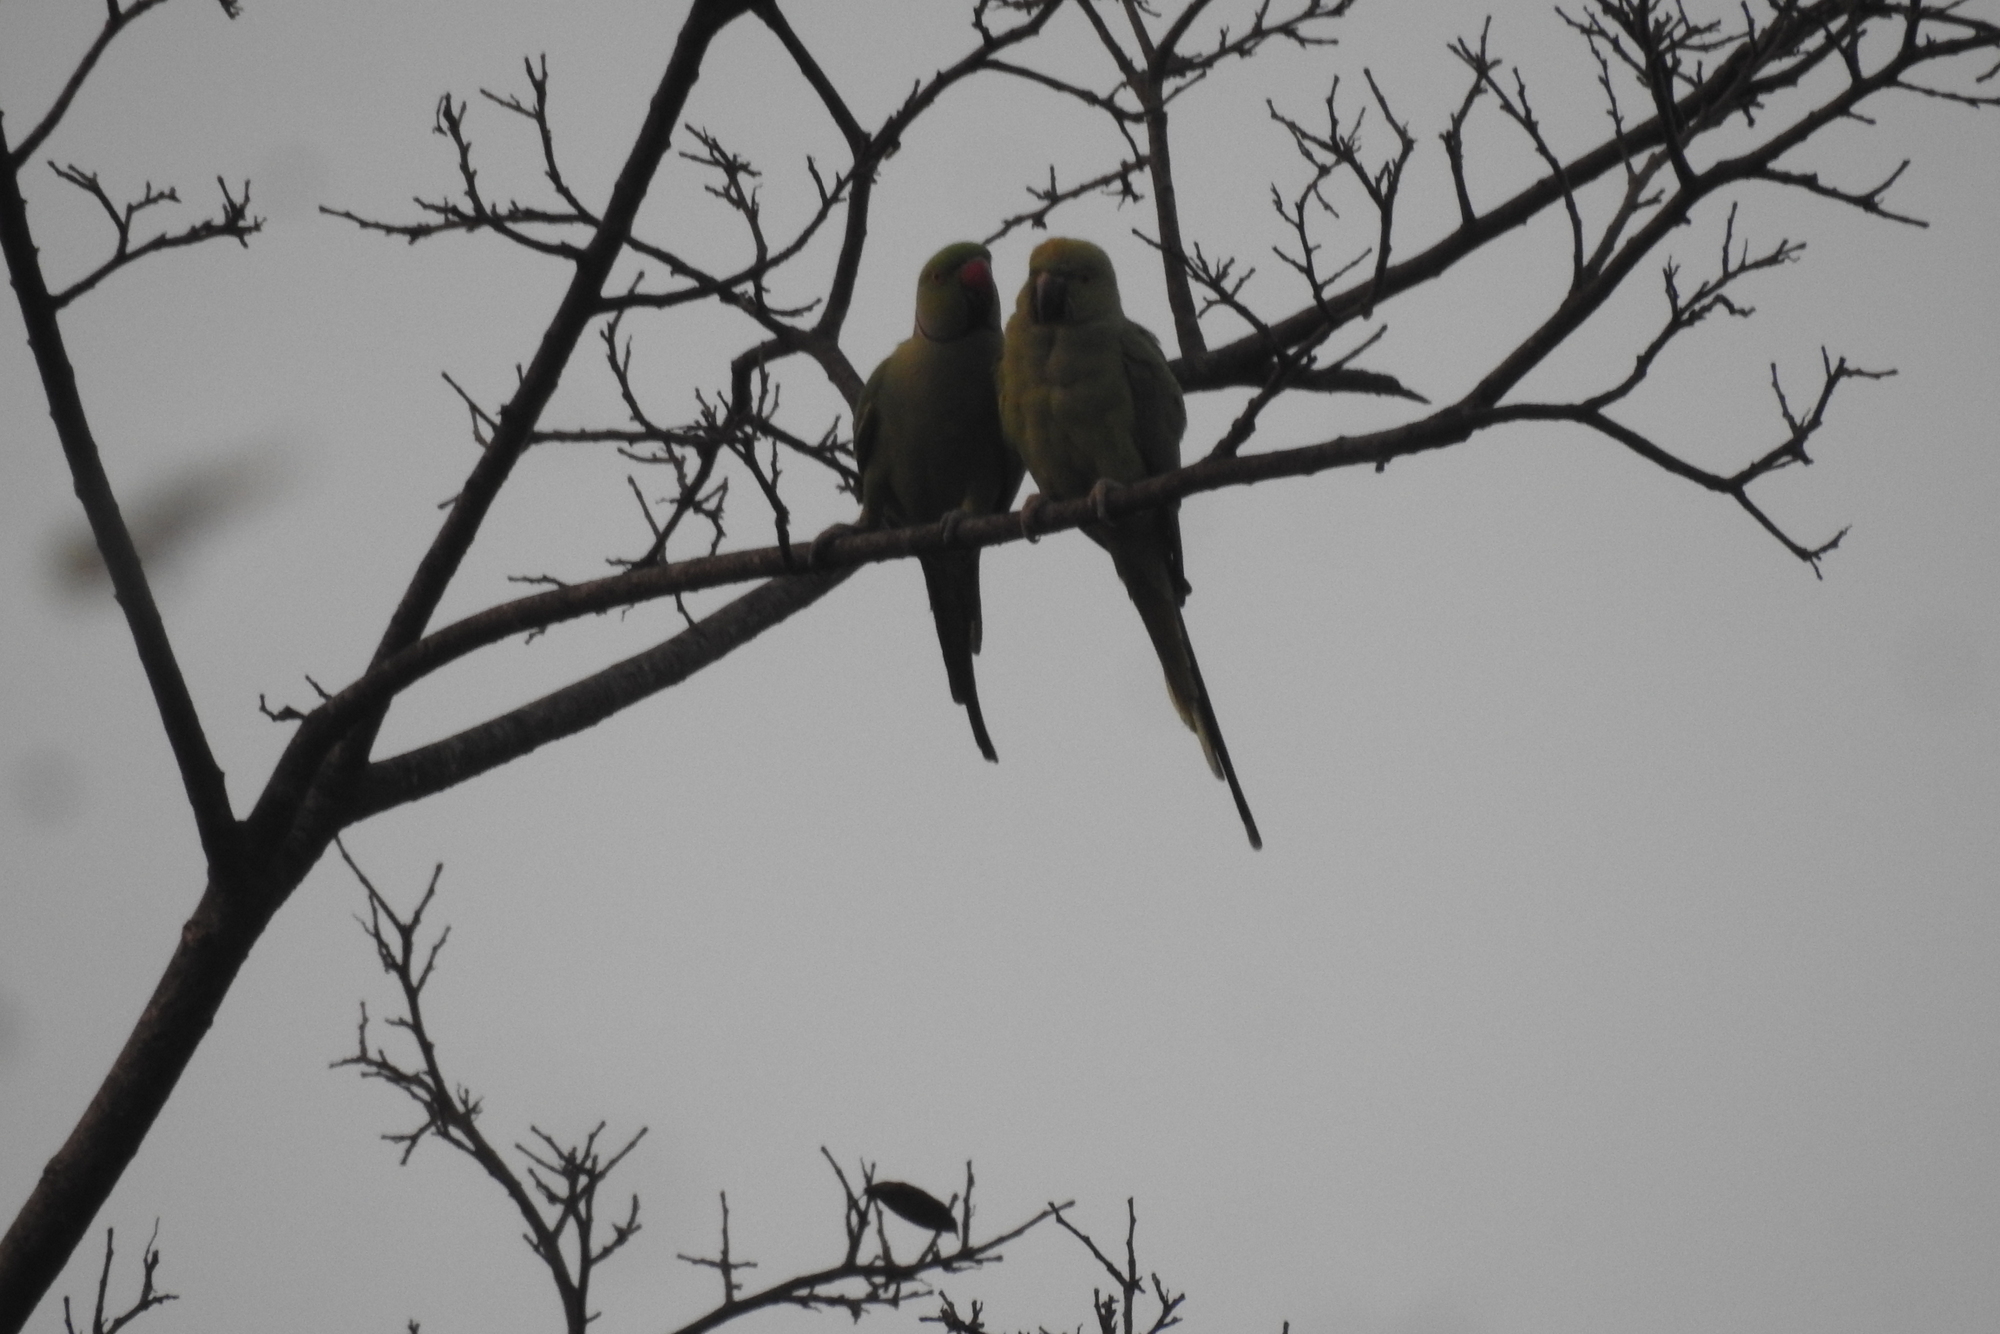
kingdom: Animalia
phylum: Chordata
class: Aves
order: Psittaciformes
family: Psittacidae
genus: Psittacula
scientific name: Psittacula krameri
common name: Rose-ringed parakeet
